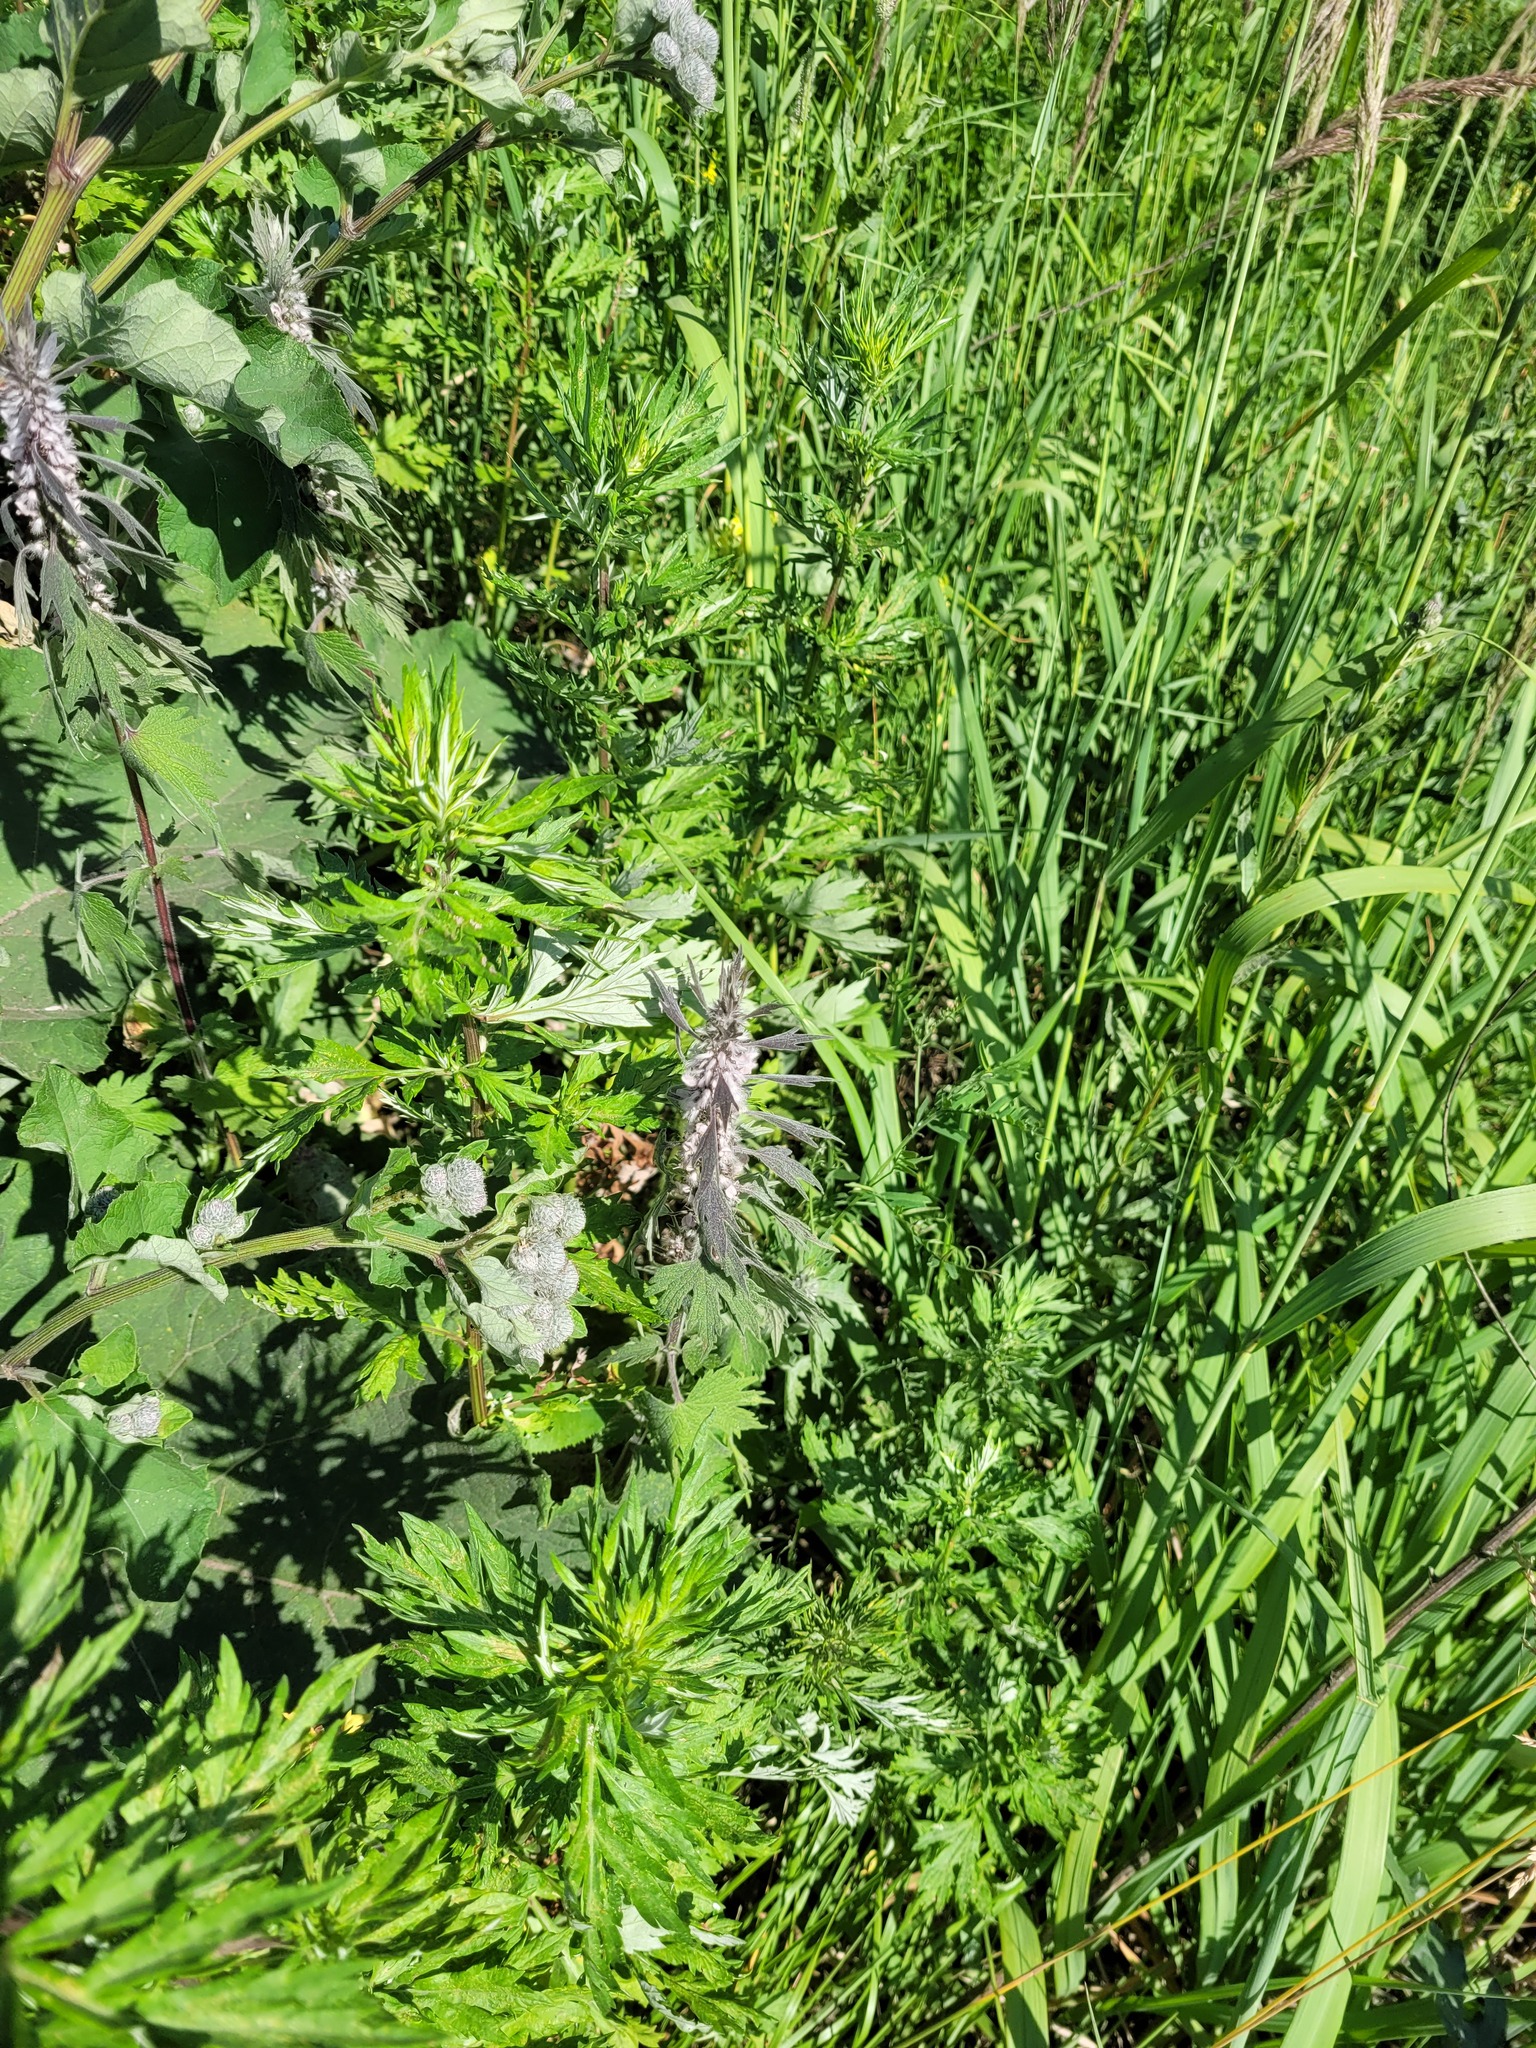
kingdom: Plantae
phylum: Tracheophyta
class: Magnoliopsida
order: Lamiales
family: Lamiaceae
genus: Leonurus
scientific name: Leonurus quinquelobatus
